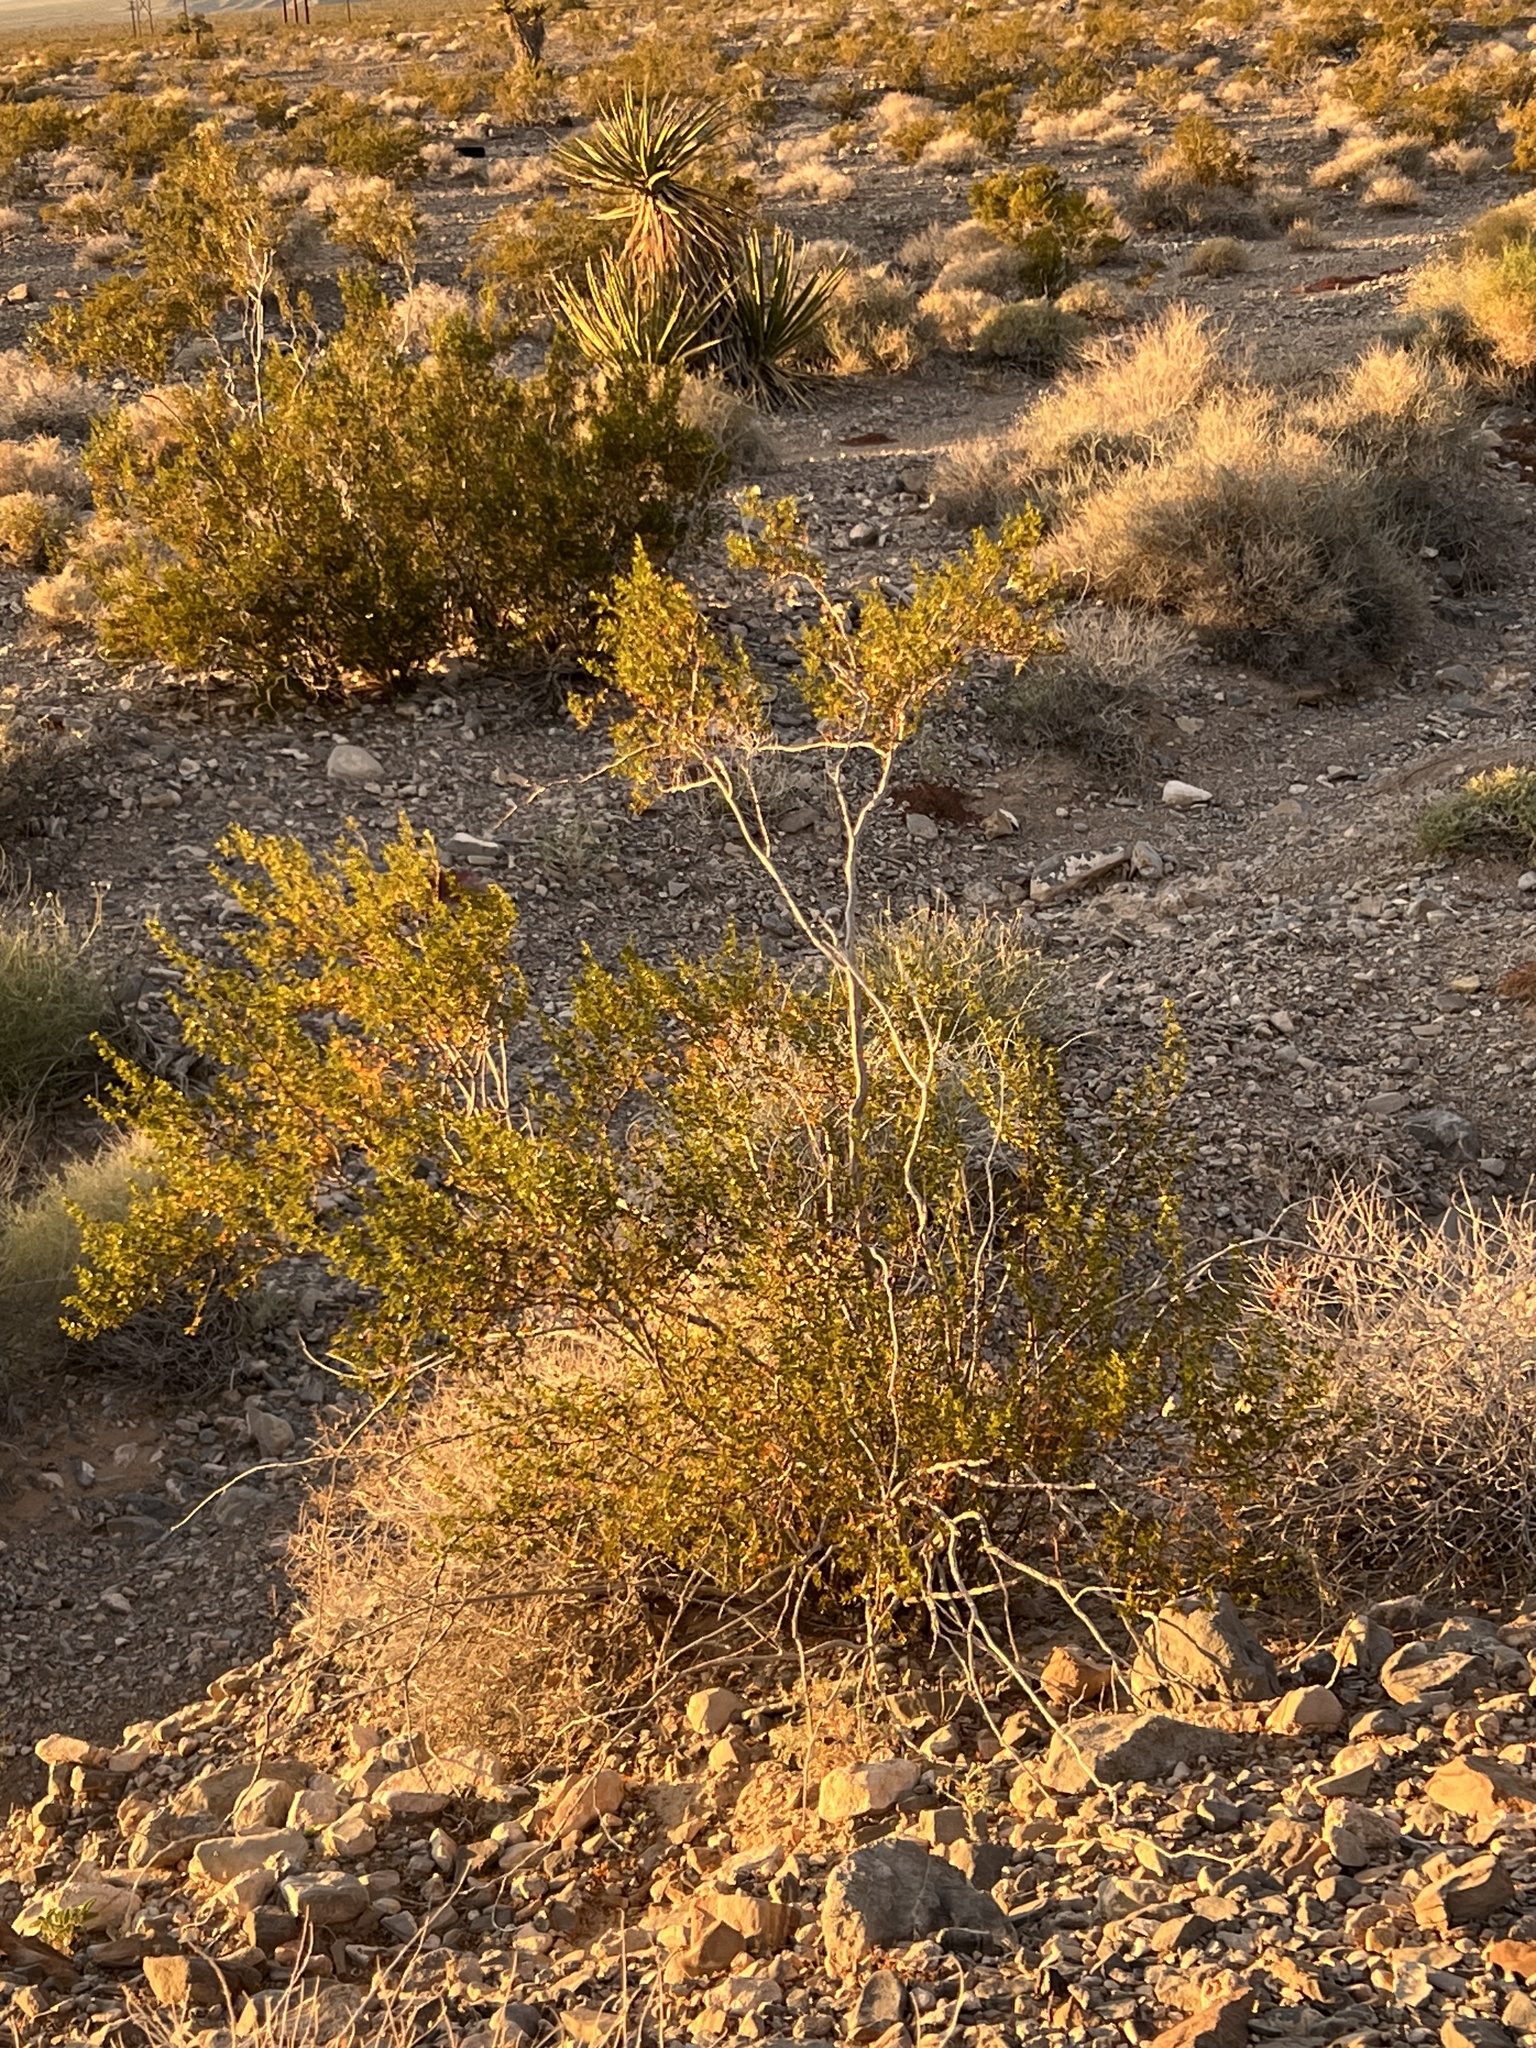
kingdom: Plantae
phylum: Tracheophyta
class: Magnoliopsida
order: Zygophyllales
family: Zygophyllaceae
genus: Larrea
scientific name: Larrea tridentata
